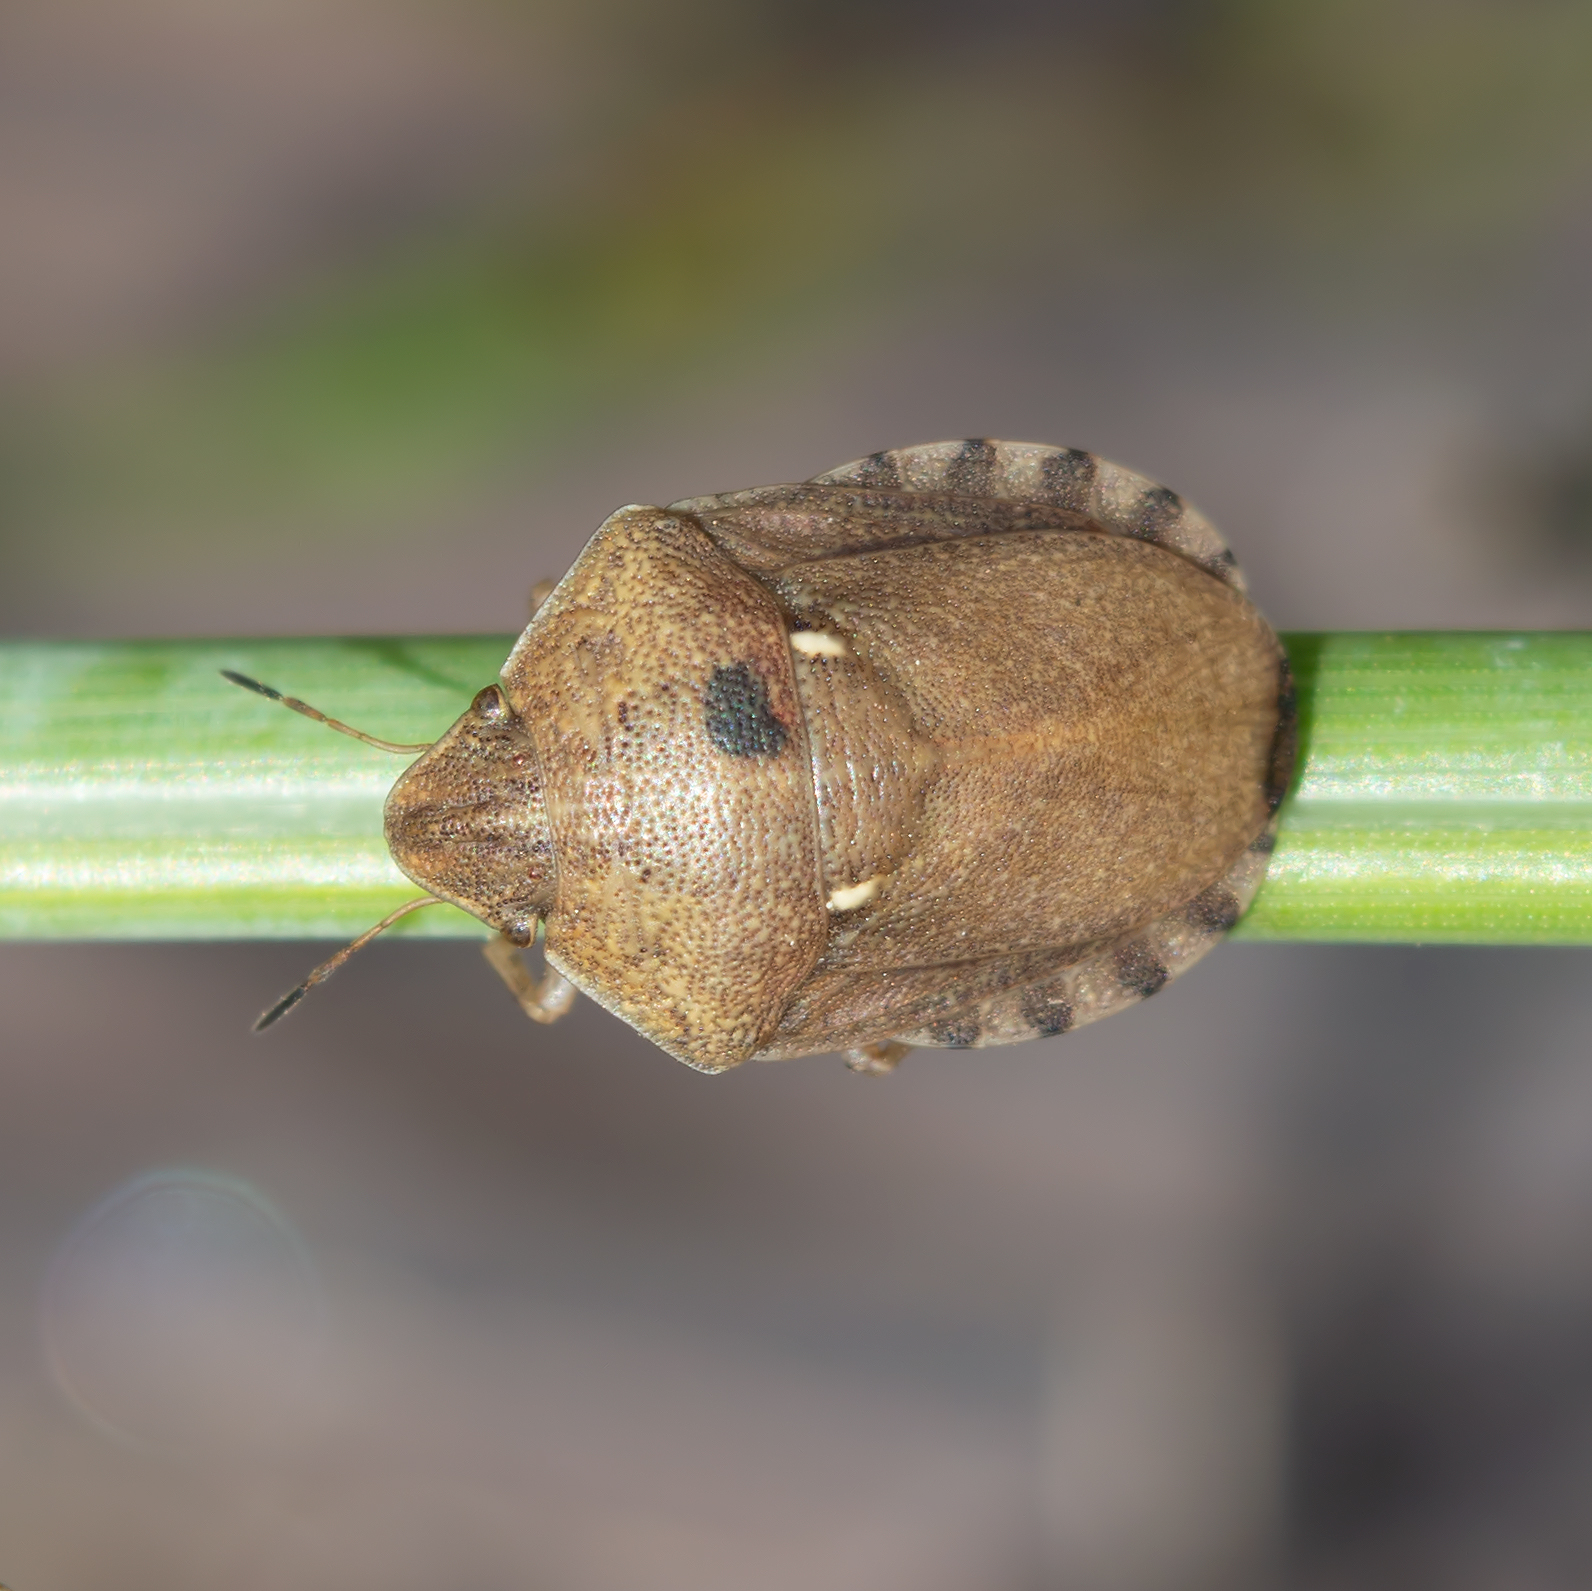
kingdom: Animalia
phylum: Arthropoda
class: Insecta
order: Hemiptera
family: Scutelleridae
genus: Eurygaster
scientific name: Eurygaster maura
